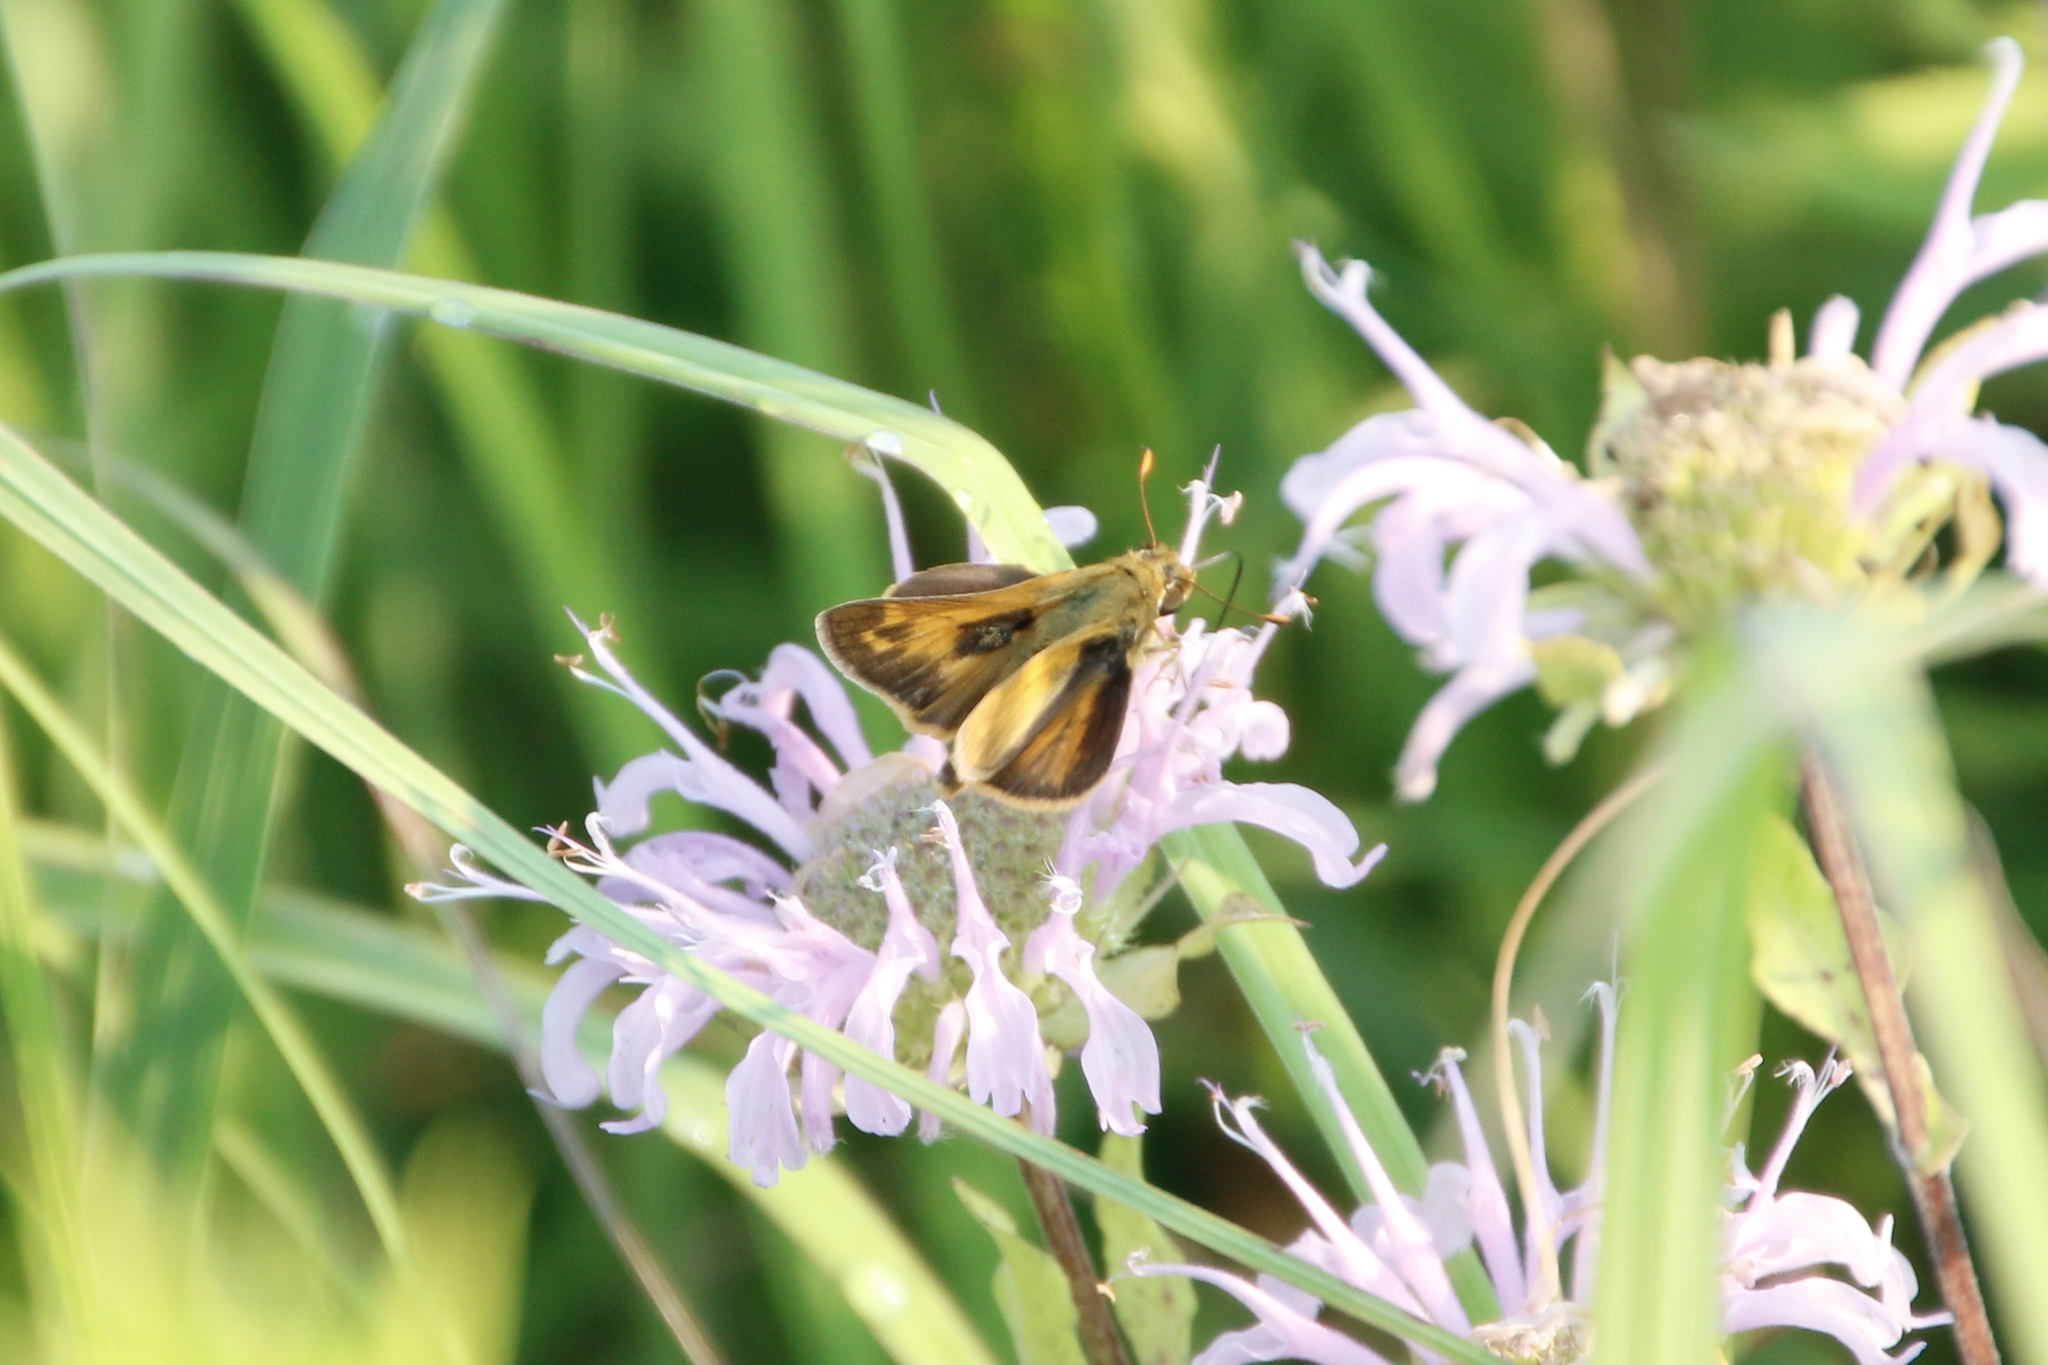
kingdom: Animalia
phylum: Arthropoda
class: Insecta
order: Lepidoptera
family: Hesperiidae
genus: Atalopedes
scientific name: Atalopedes
